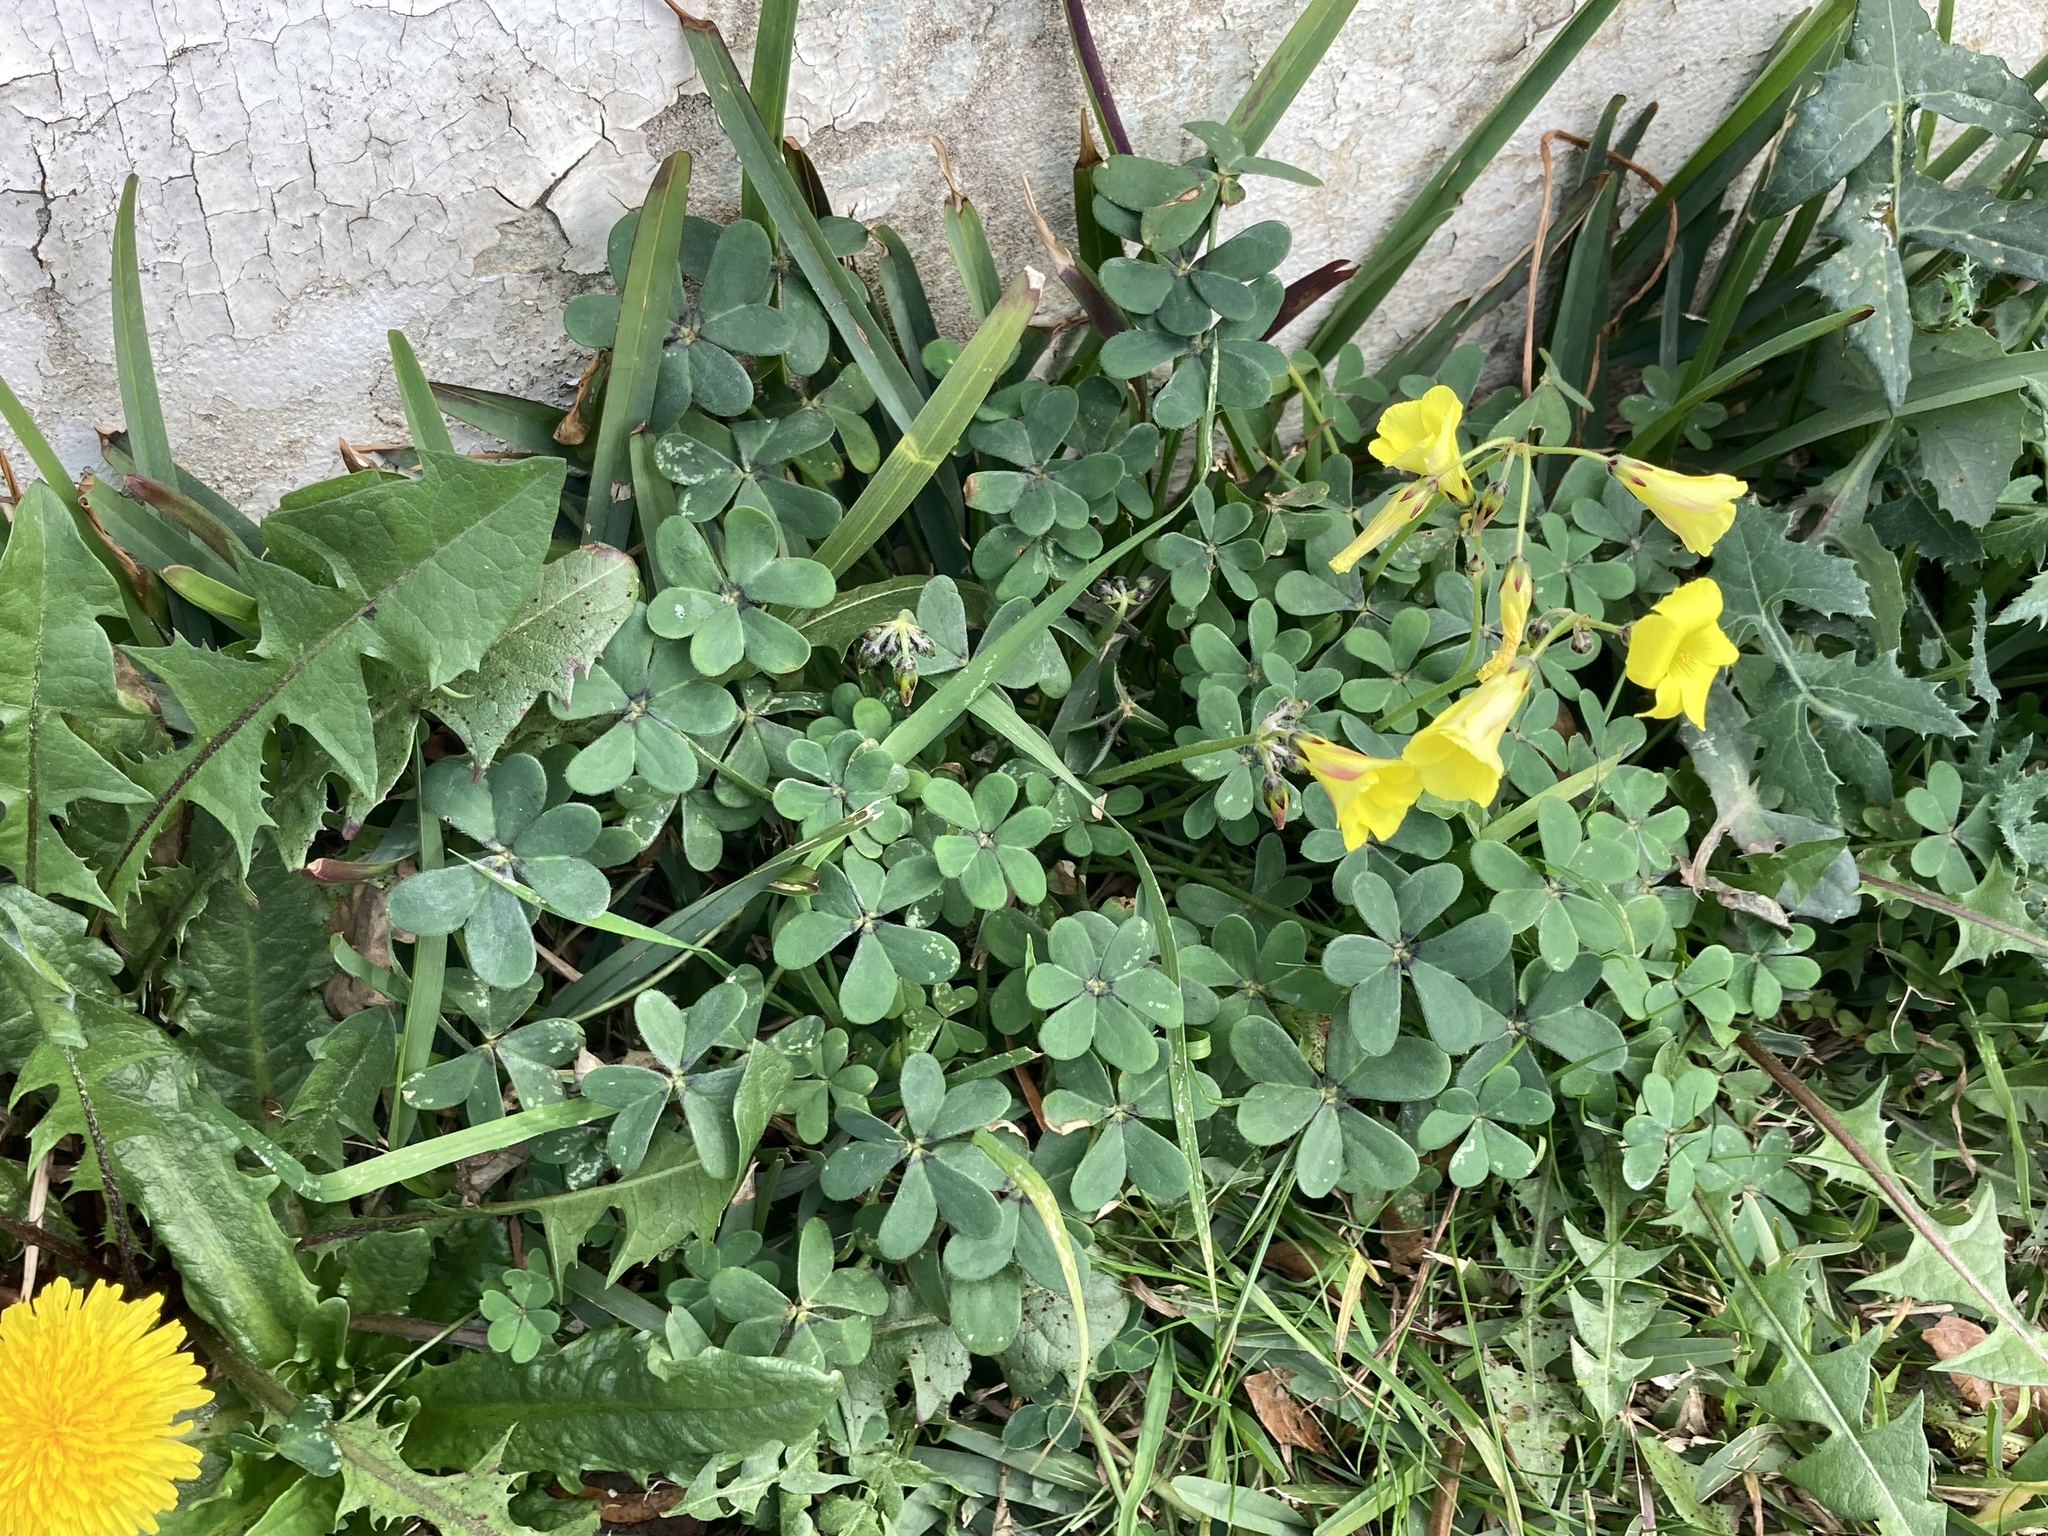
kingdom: Plantae
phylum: Tracheophyta
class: Magnoliopsida
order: Oxalidales
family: Oxalidaceae
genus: Oxalis
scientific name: Oxalis pes-caprae
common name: Bermuda-buttercup
